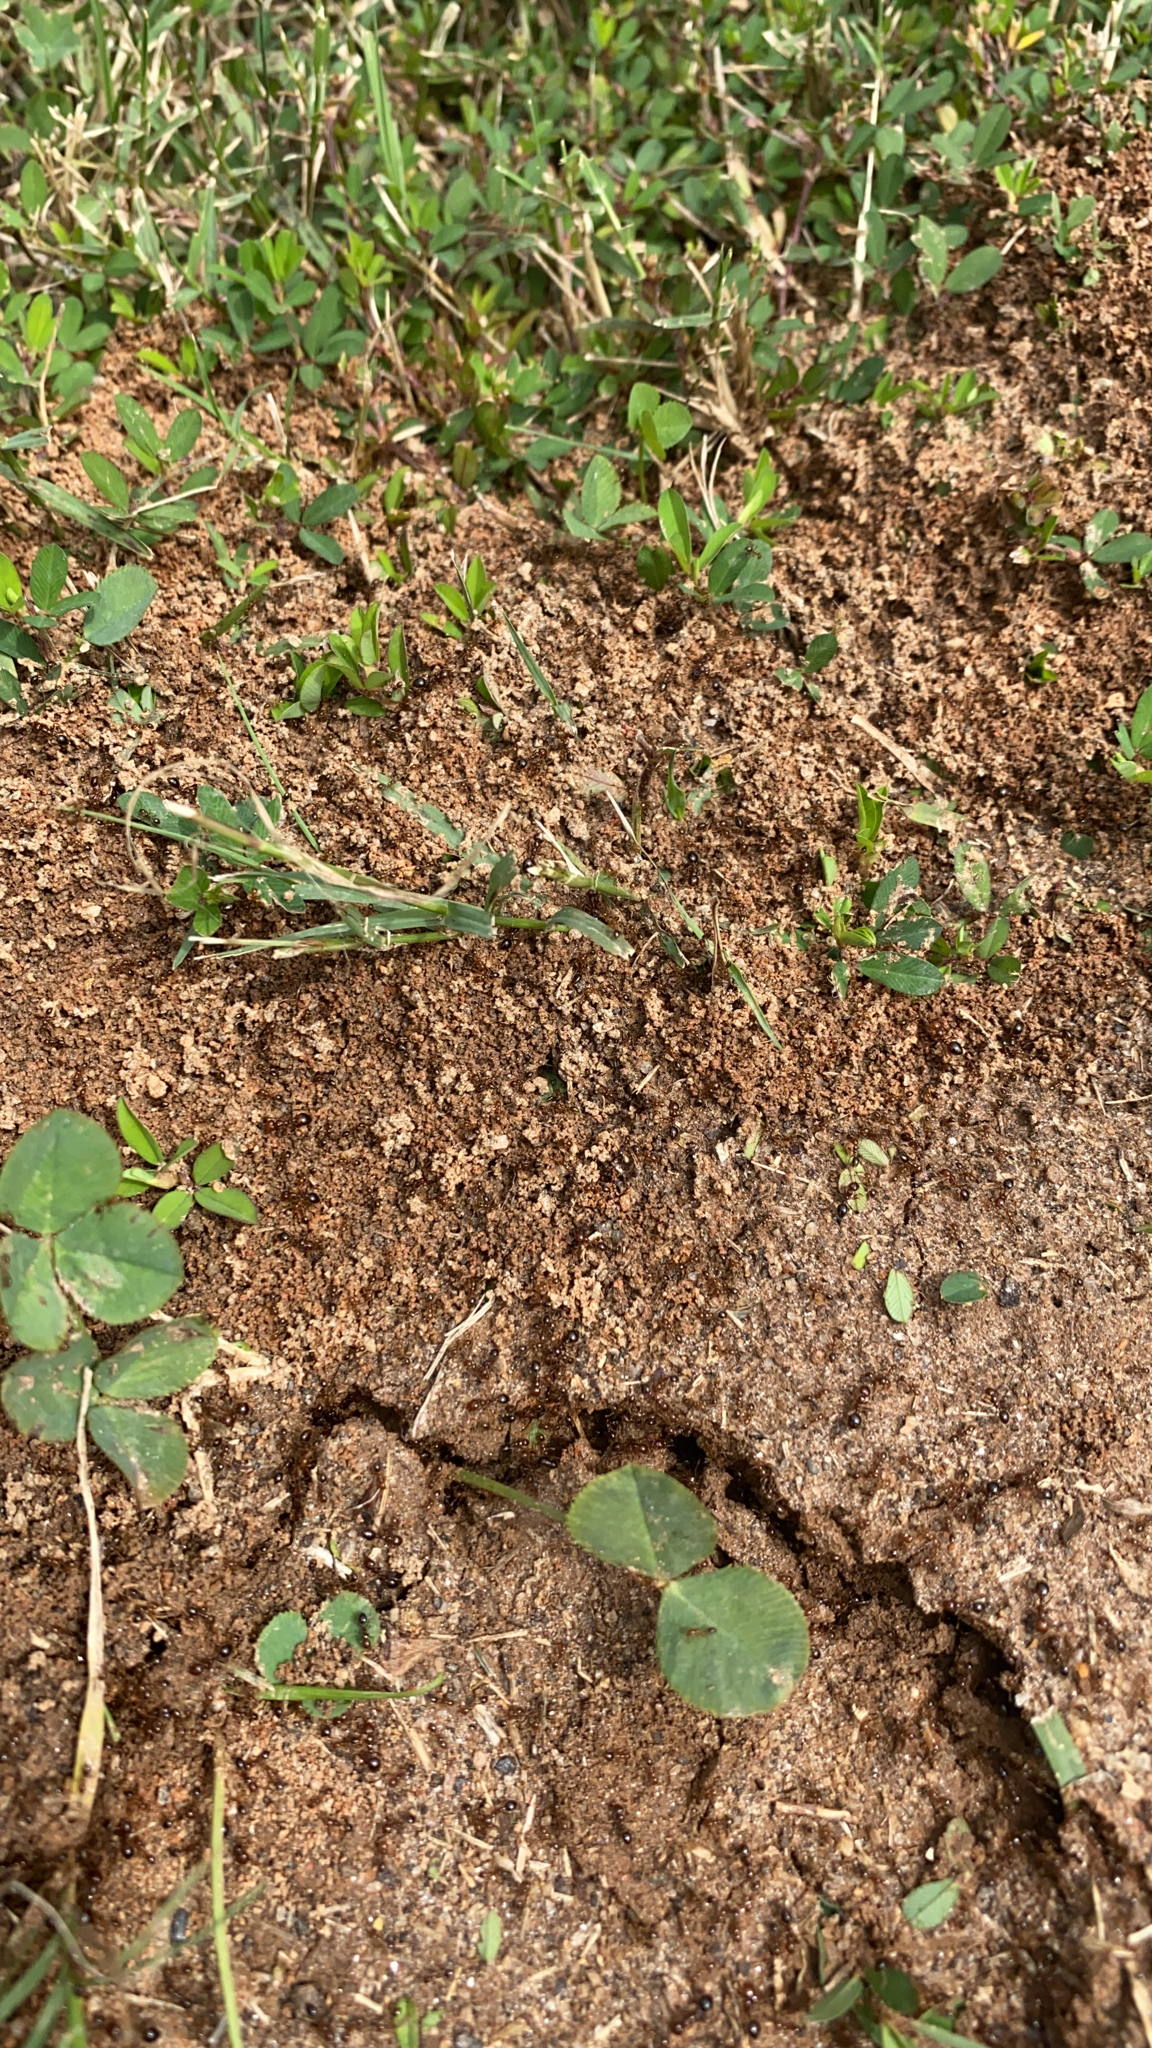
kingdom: Animalia
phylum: Arthropoda
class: Insecta
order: Hymenoptera
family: Formicidae
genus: Solenopsis
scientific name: Solenopsis invicta
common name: Red imported fire ant
